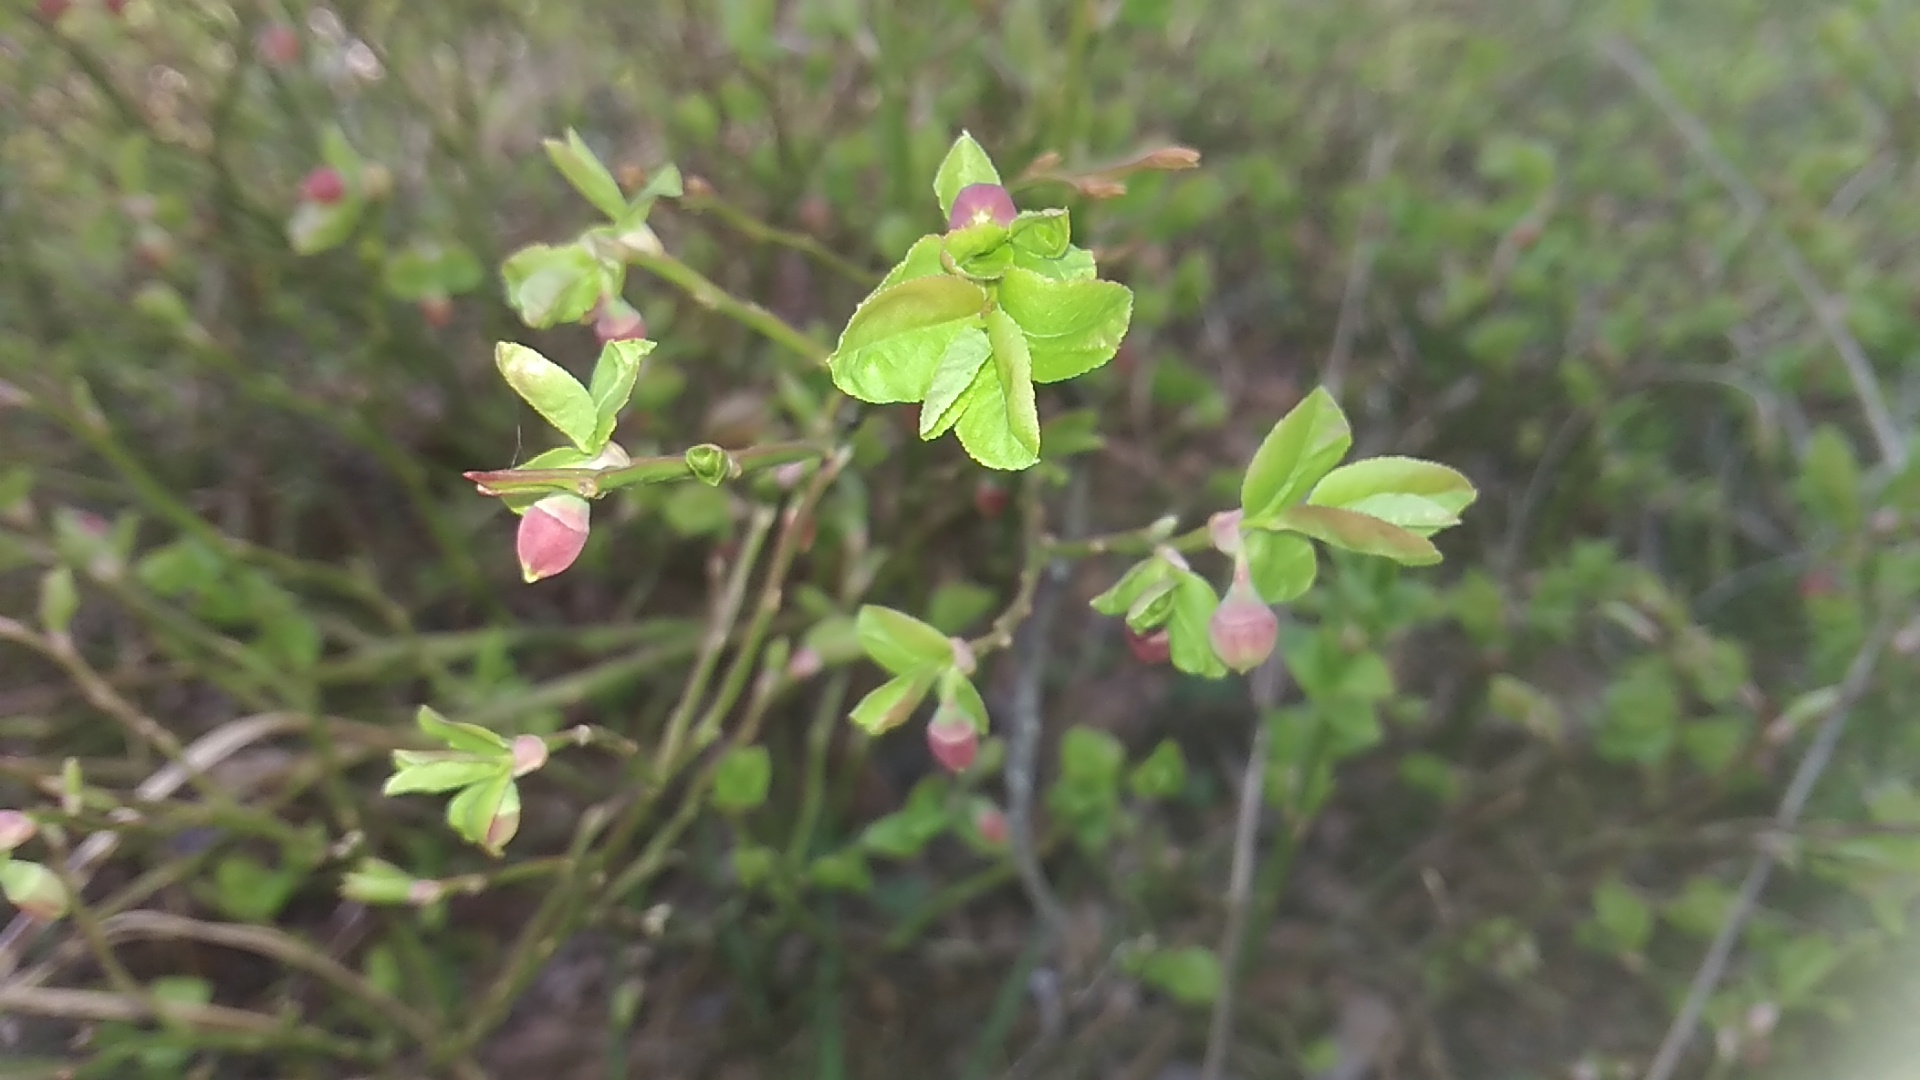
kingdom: Plantae
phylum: Tracheophyta
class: Magnoliopsida
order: Ericales
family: Ericaceae
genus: Vaccinium
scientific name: Vaccinium myrtillus
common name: Bilberry
